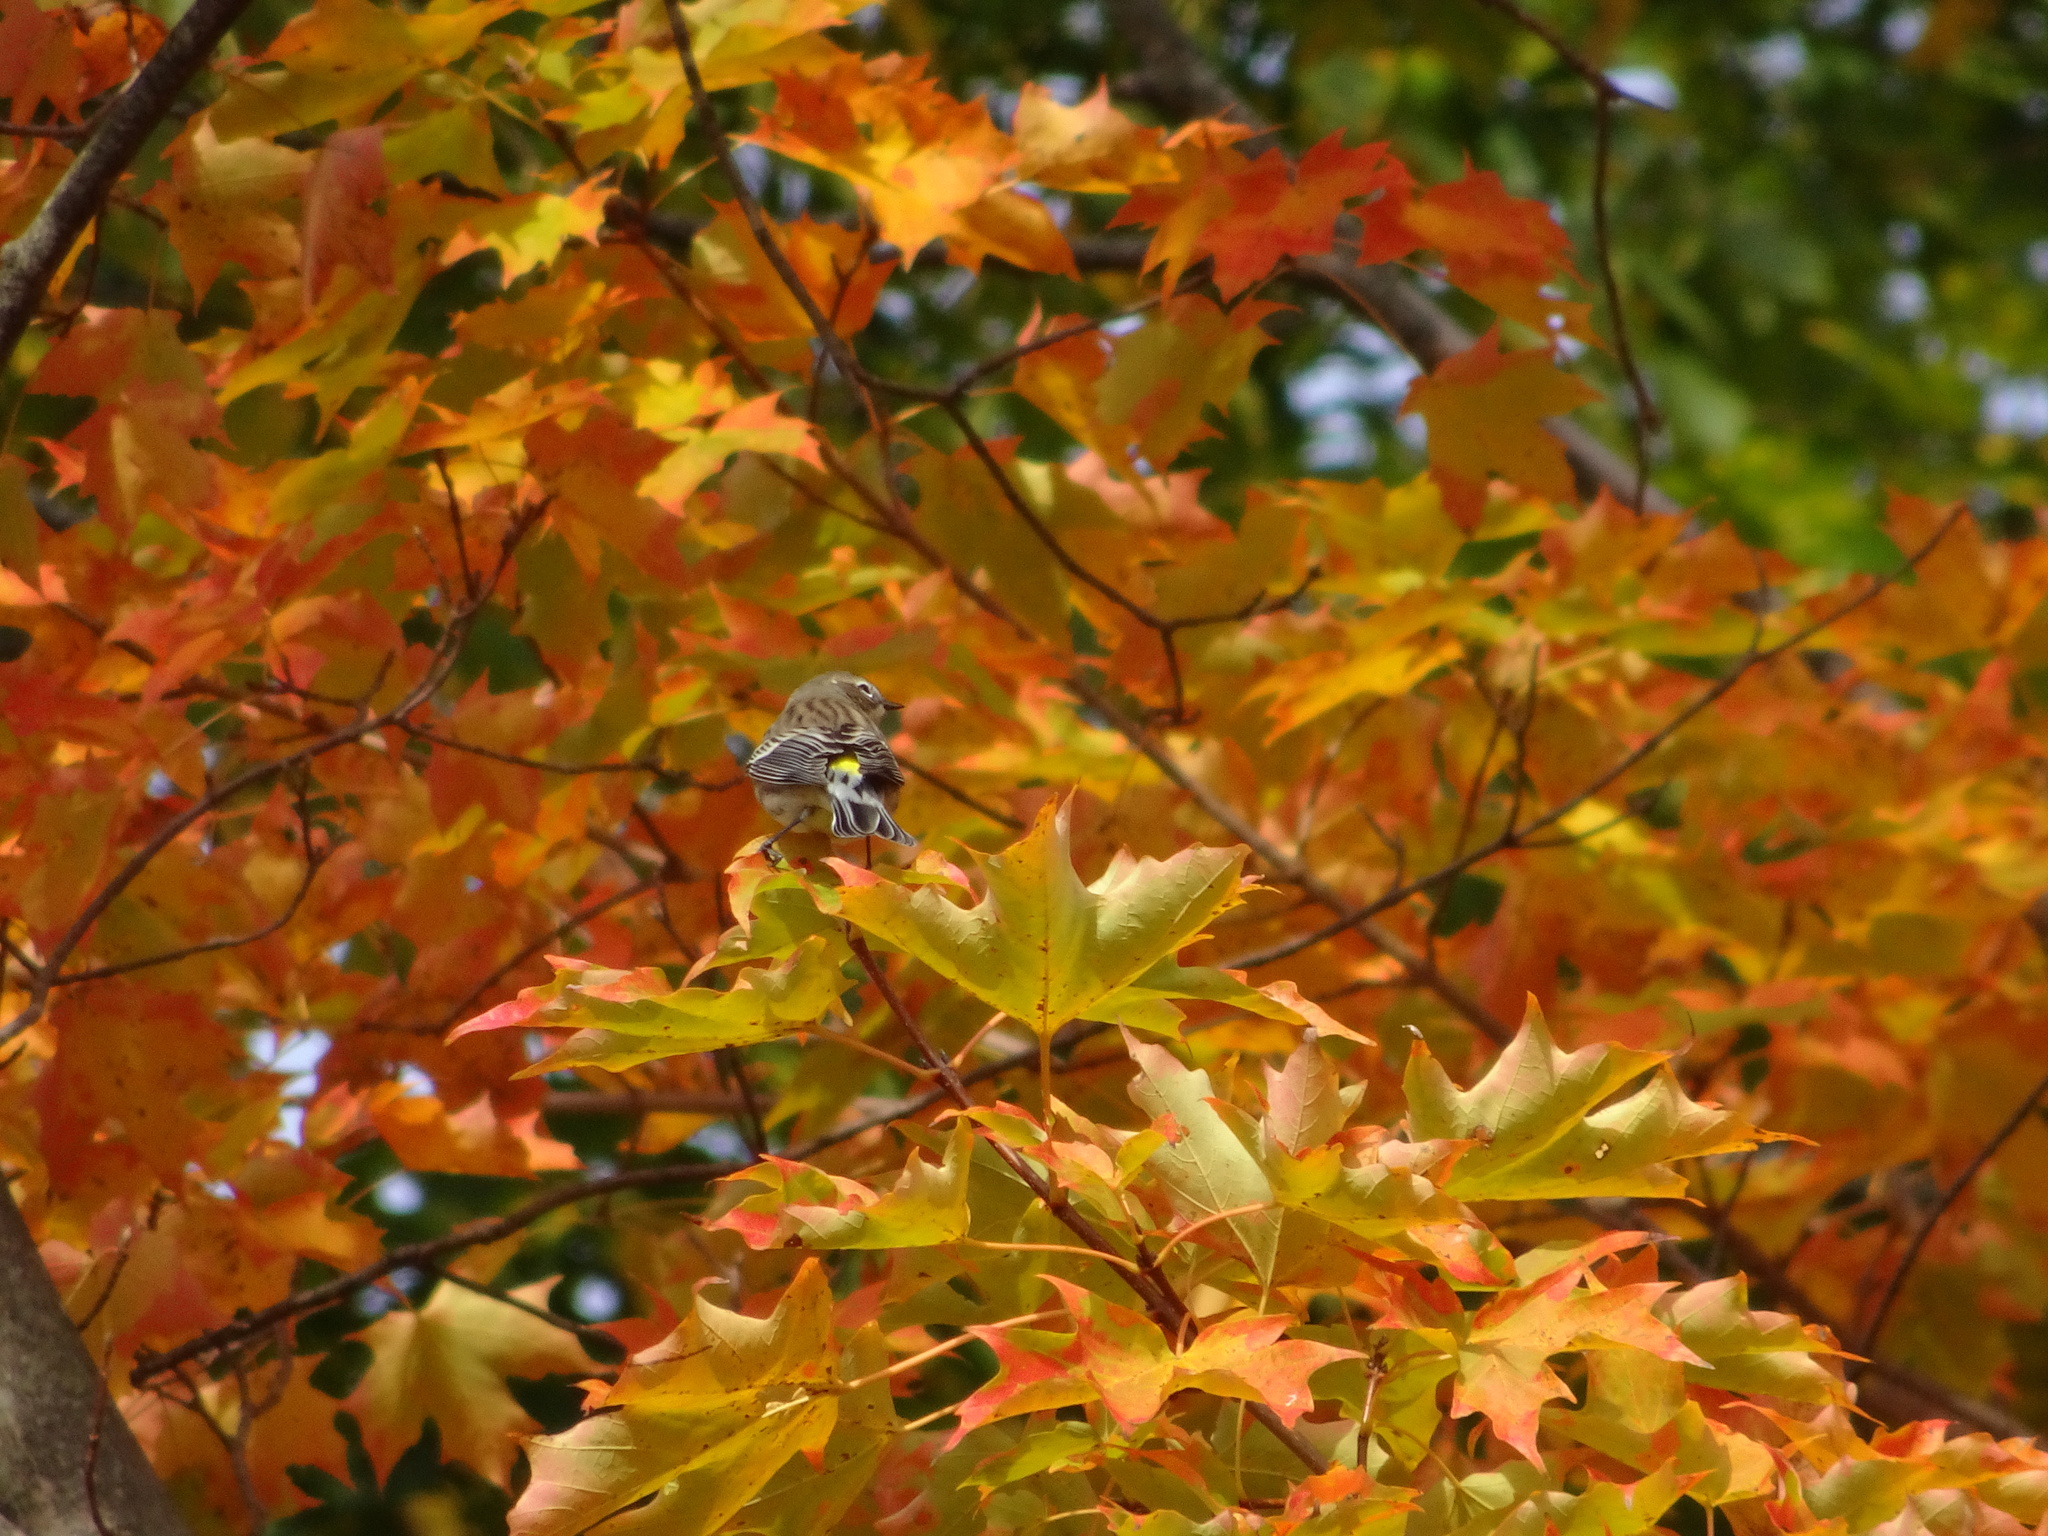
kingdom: Animalia
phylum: Chordata
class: Aves
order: Passeriformes
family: Parulidae
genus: Setophaga
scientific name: Setophaga coronata
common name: Myrtle warbler
